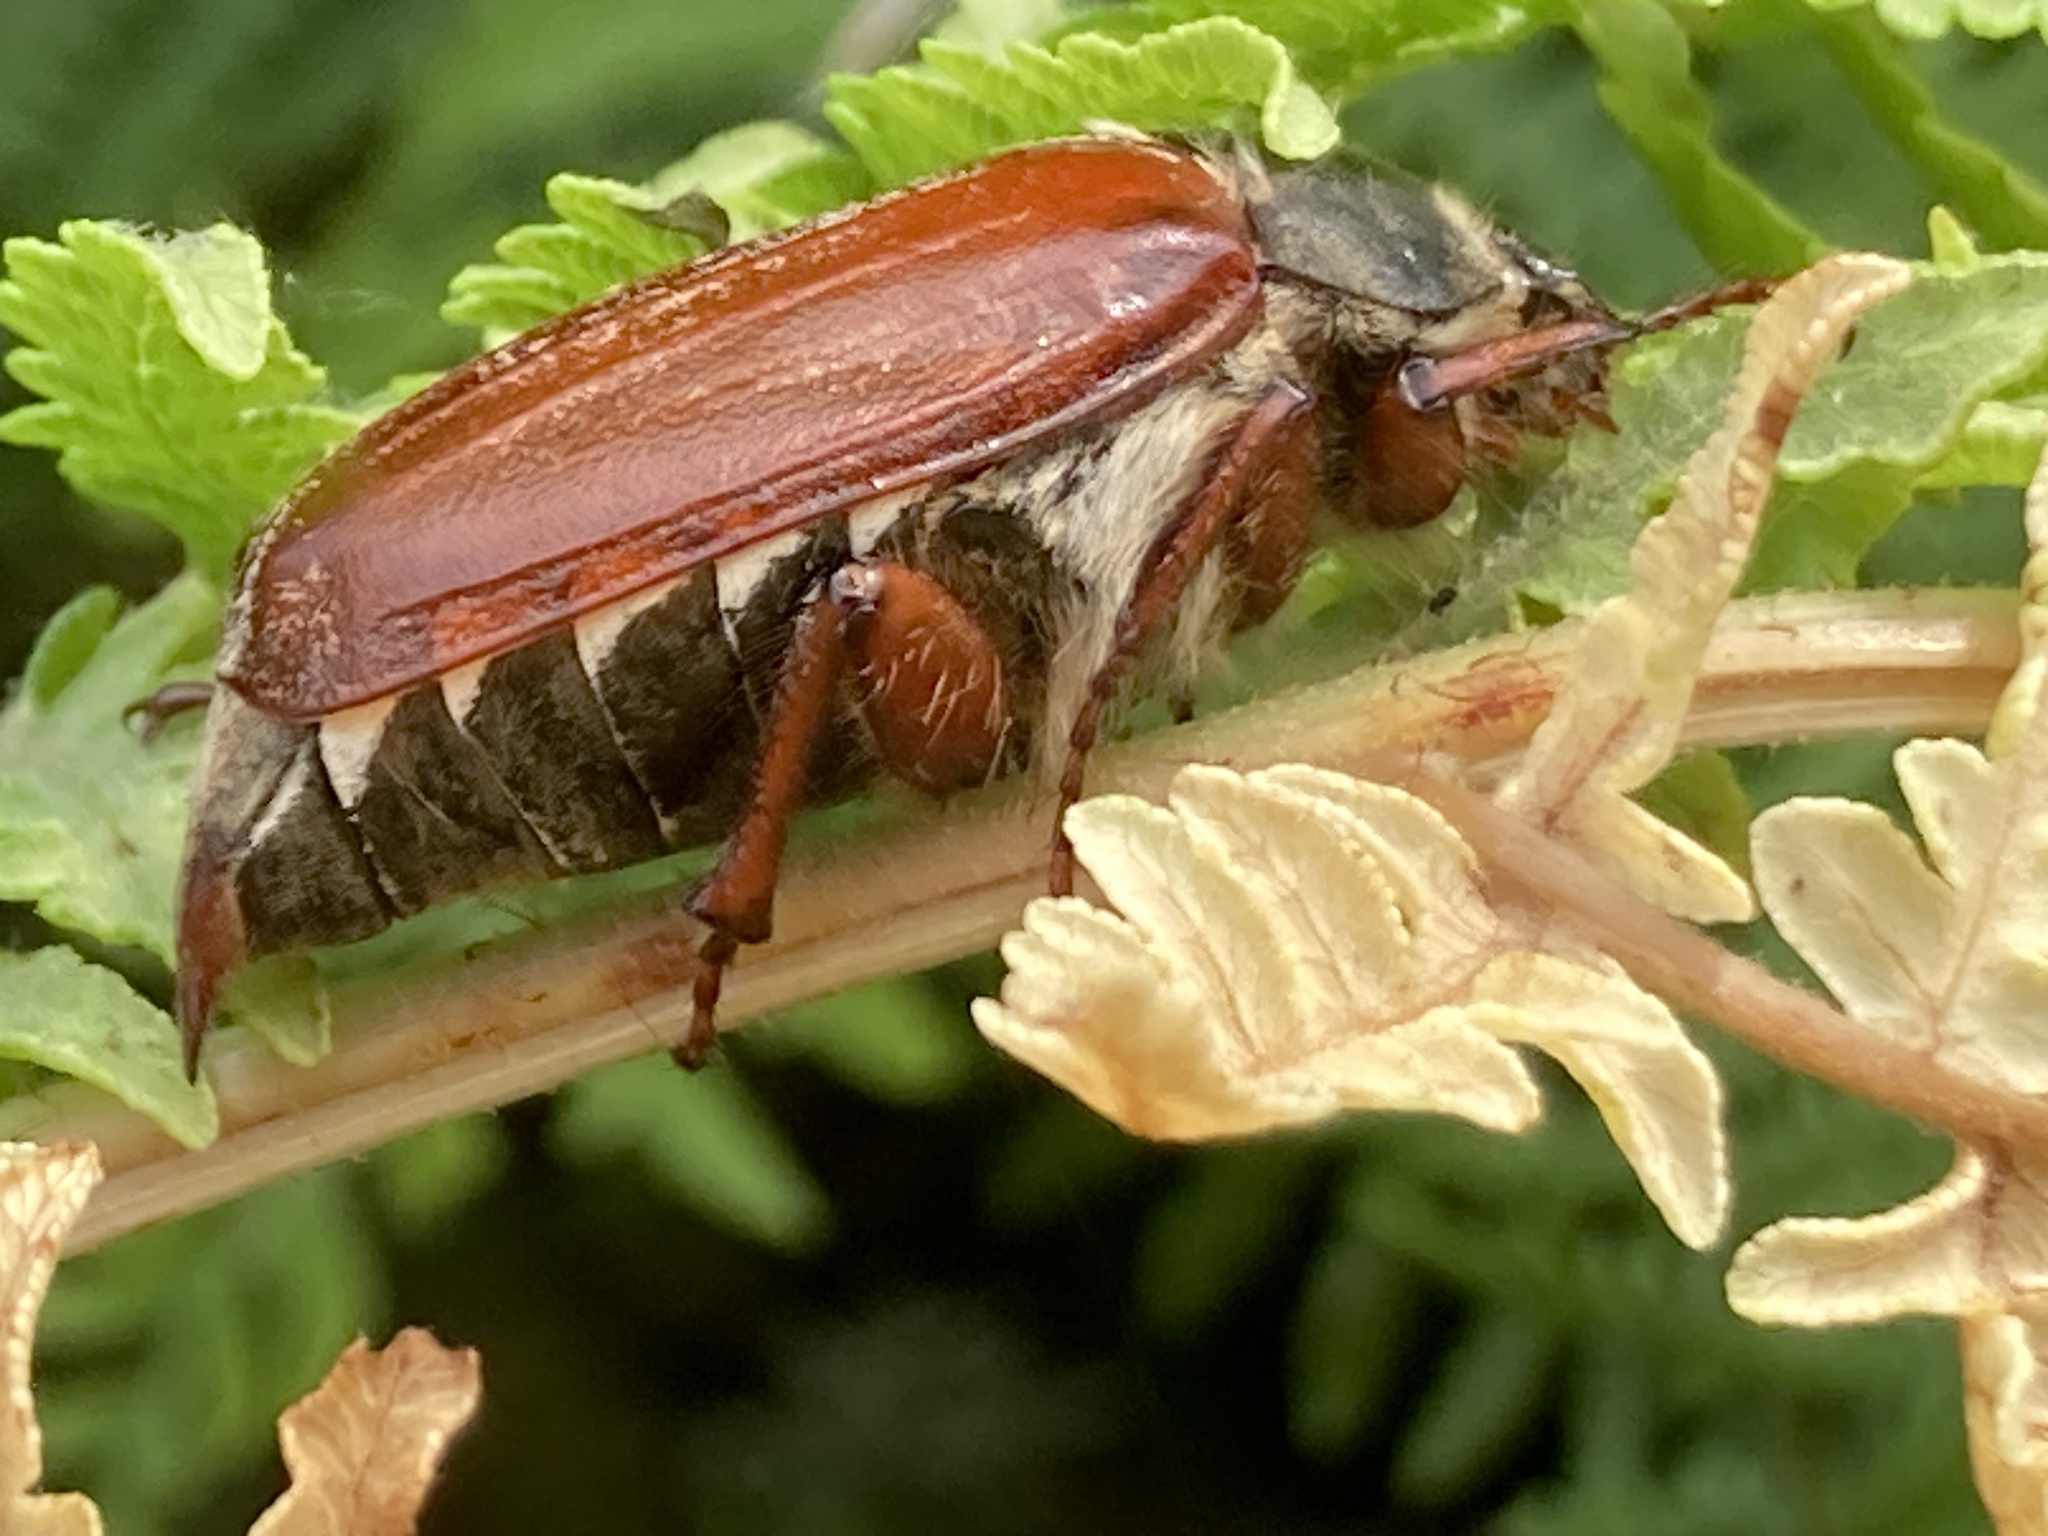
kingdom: Animalia
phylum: Arthropoda
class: Insecta
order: Coleoptera
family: Scarabaeidae
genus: Melolontha
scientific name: Melolontha melolontha
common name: Cockchafer maybeetle
